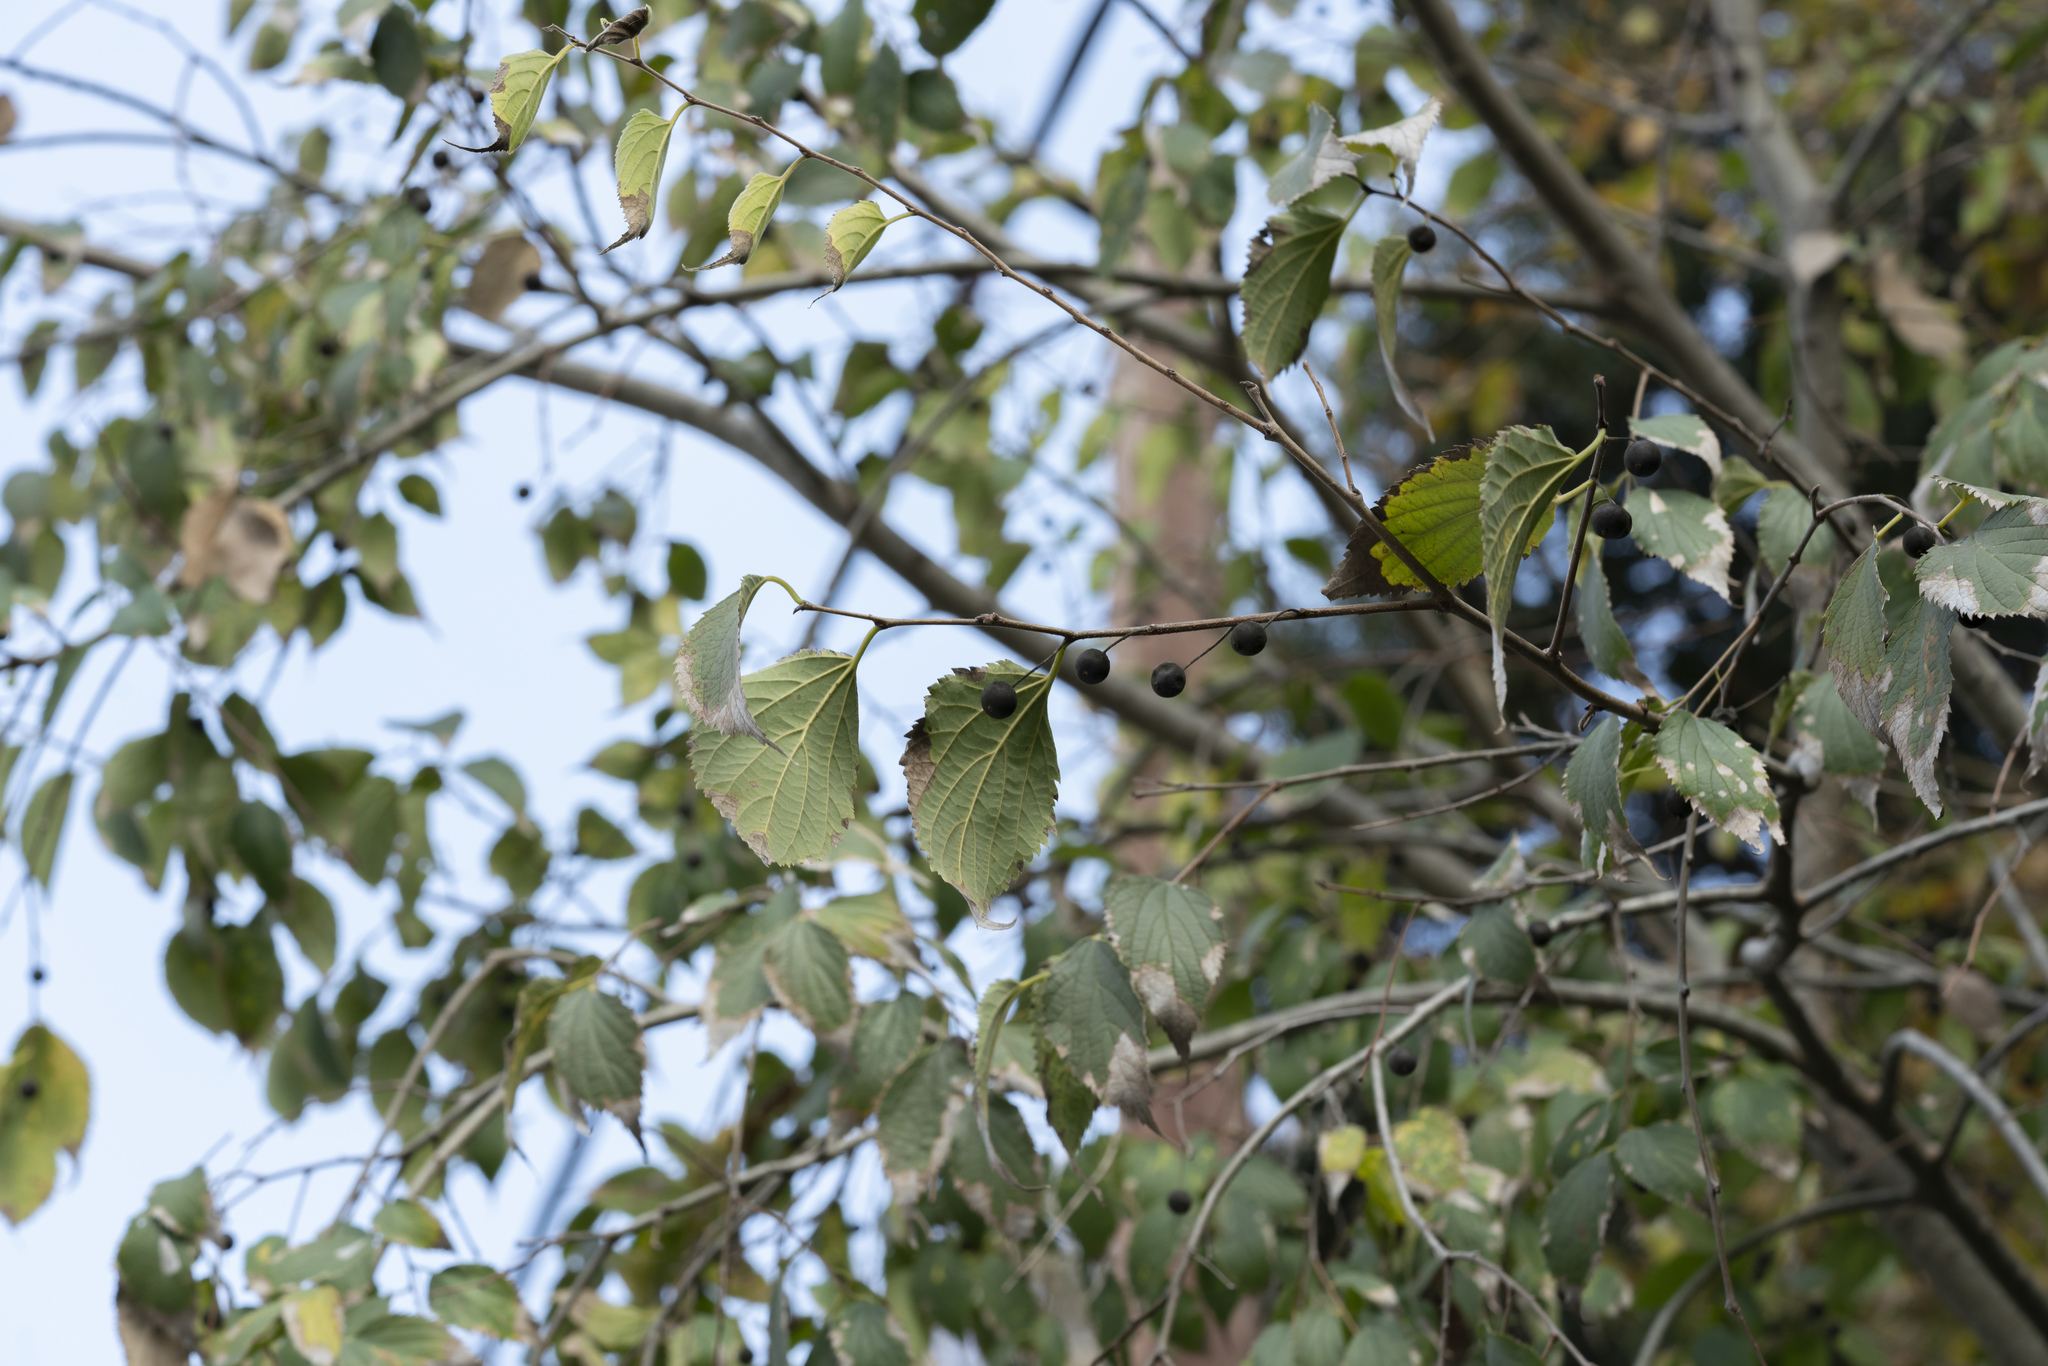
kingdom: Plantae
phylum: Tracheophyta
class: Magnoliopsida
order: Rosales
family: Cannabaceae
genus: Celtis
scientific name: Celtis australis
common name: European hackberry
